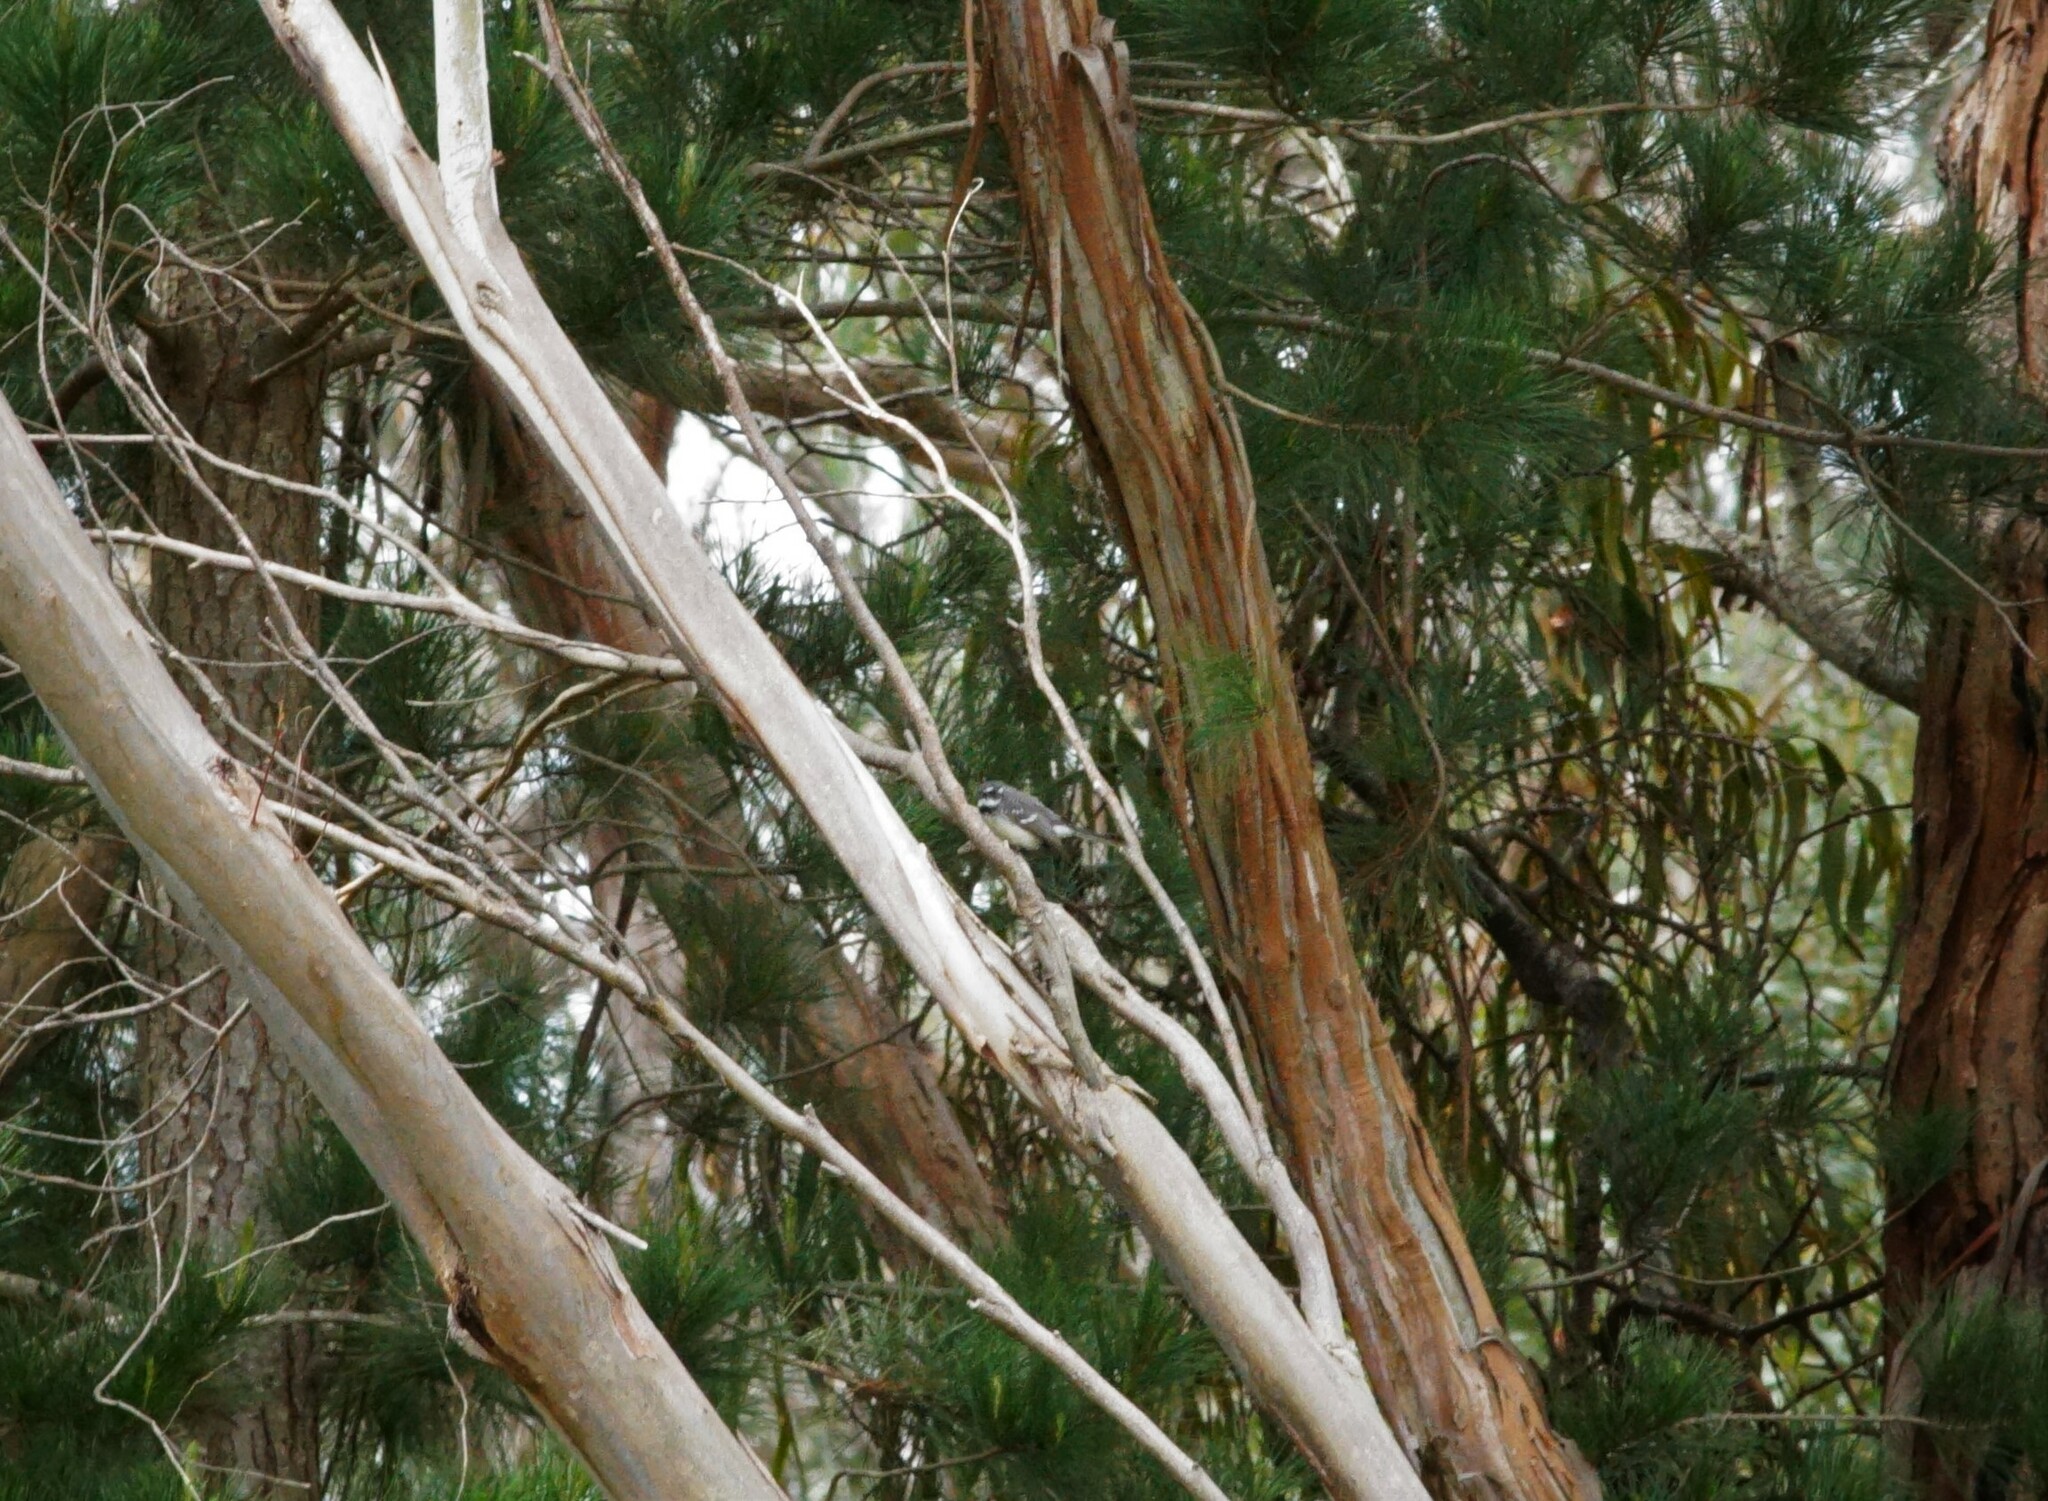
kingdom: Animalia
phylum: Chordata
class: Aves
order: Passeriformes
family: Rhipiduridae
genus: Rhipidura
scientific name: Rhipidura albiscapa
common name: Grey fantail
